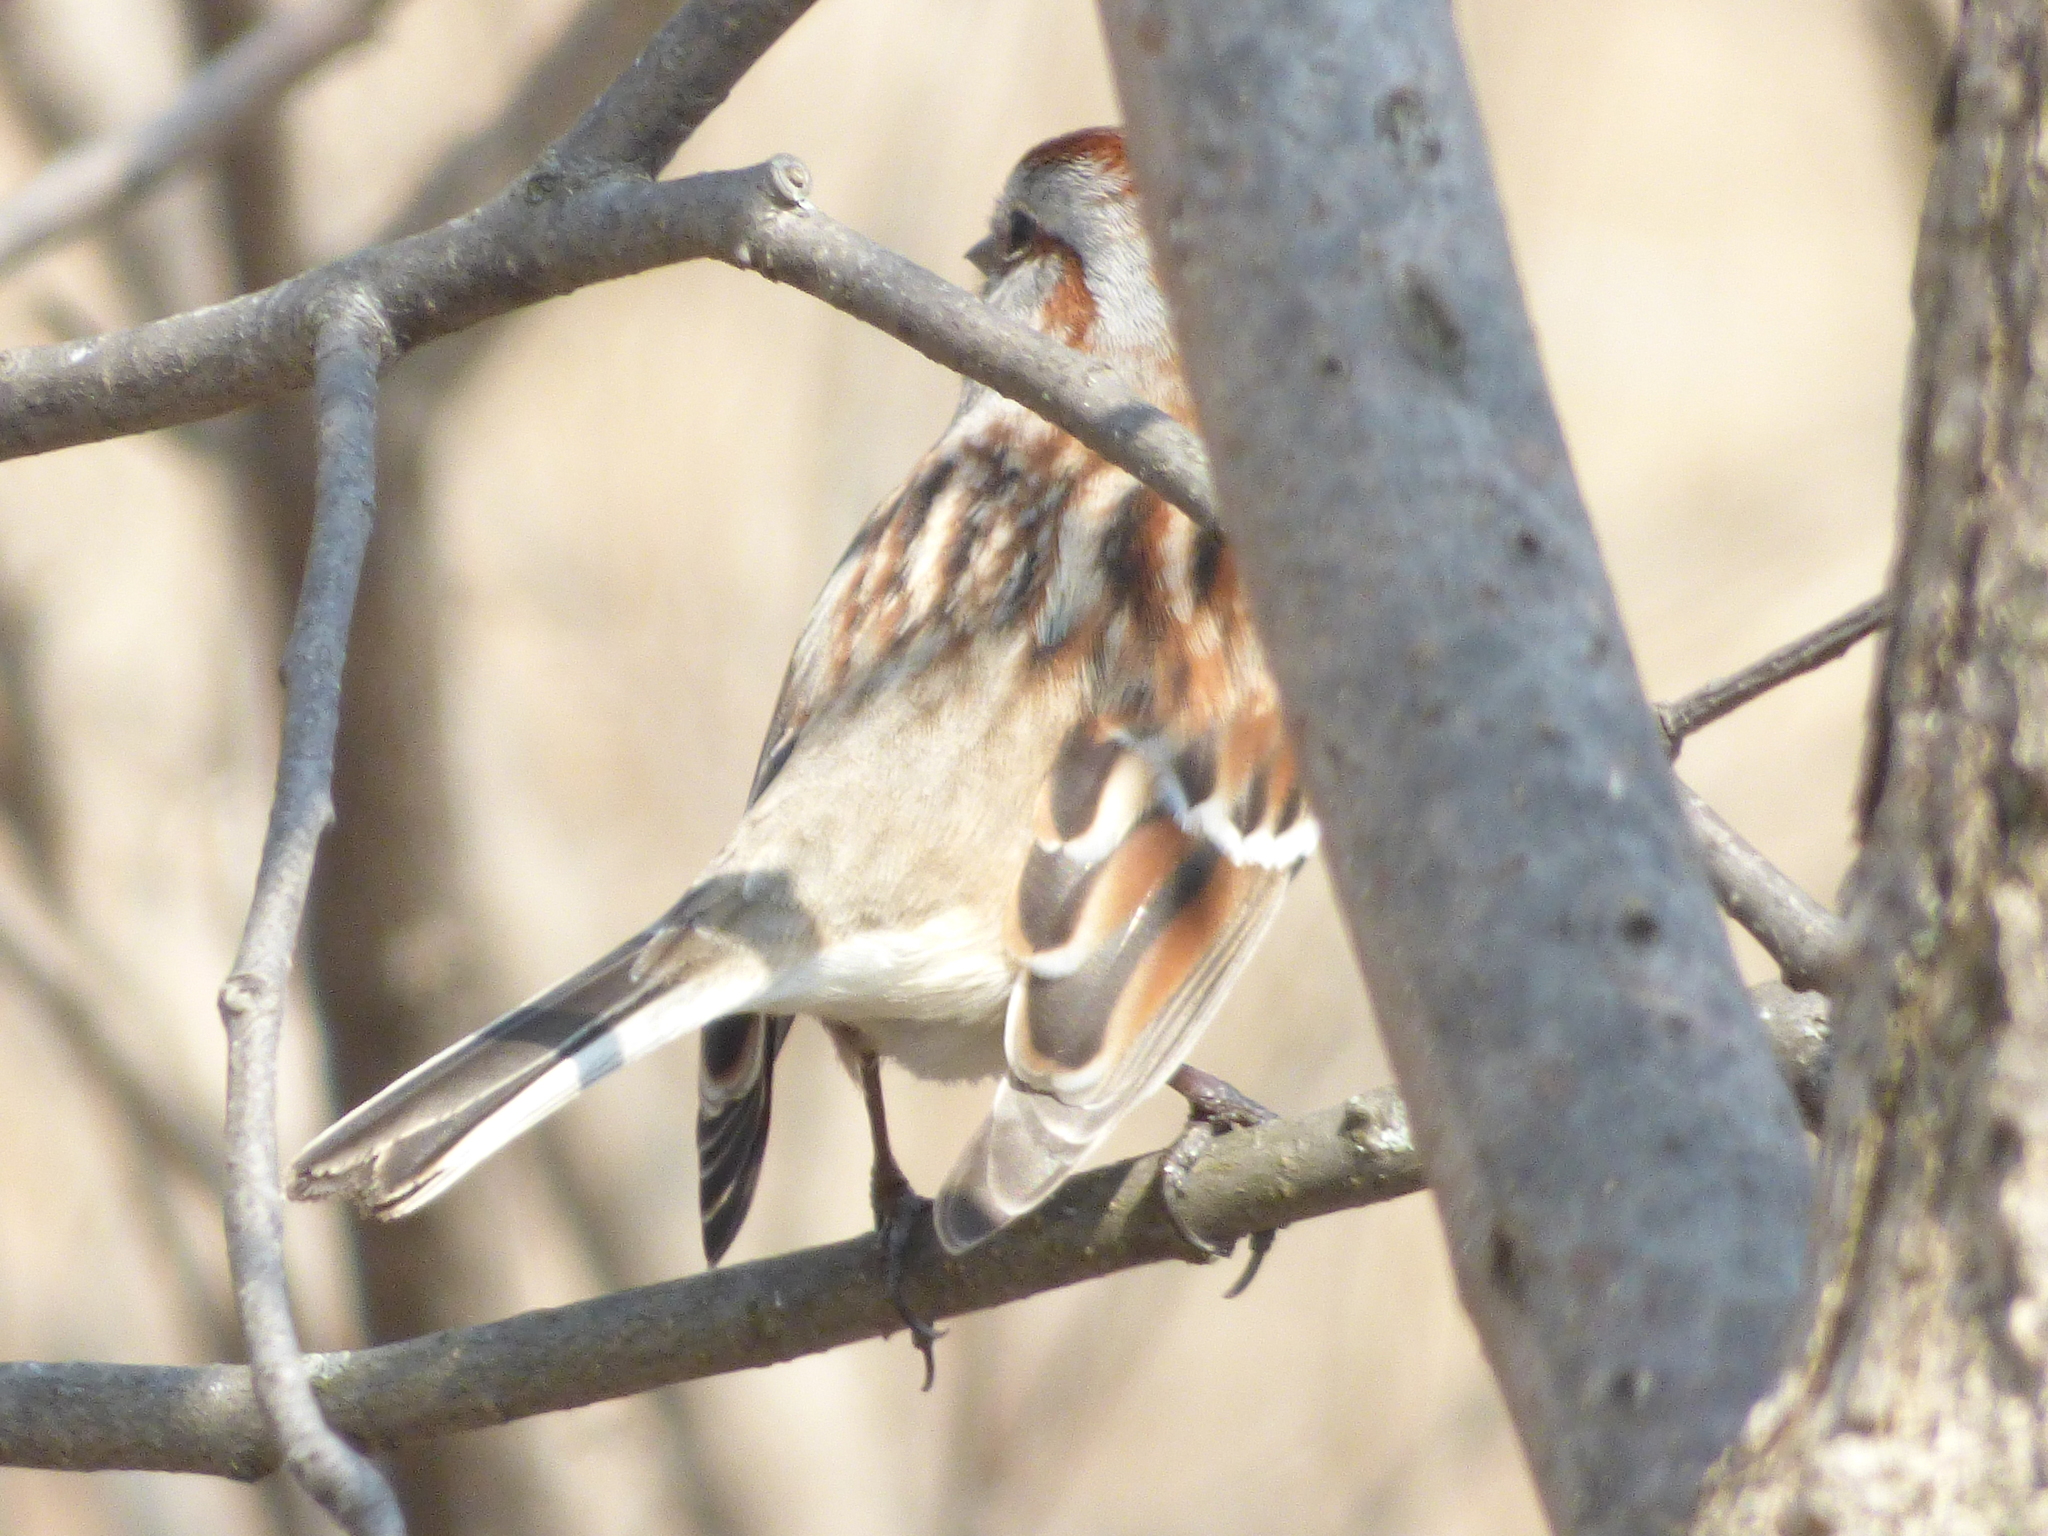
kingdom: Animalia
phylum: Chordata
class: Aves
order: Passeriformes
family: Passerellidae
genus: Spizelloides
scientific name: Spizelloides arborea
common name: American tree sparrow
